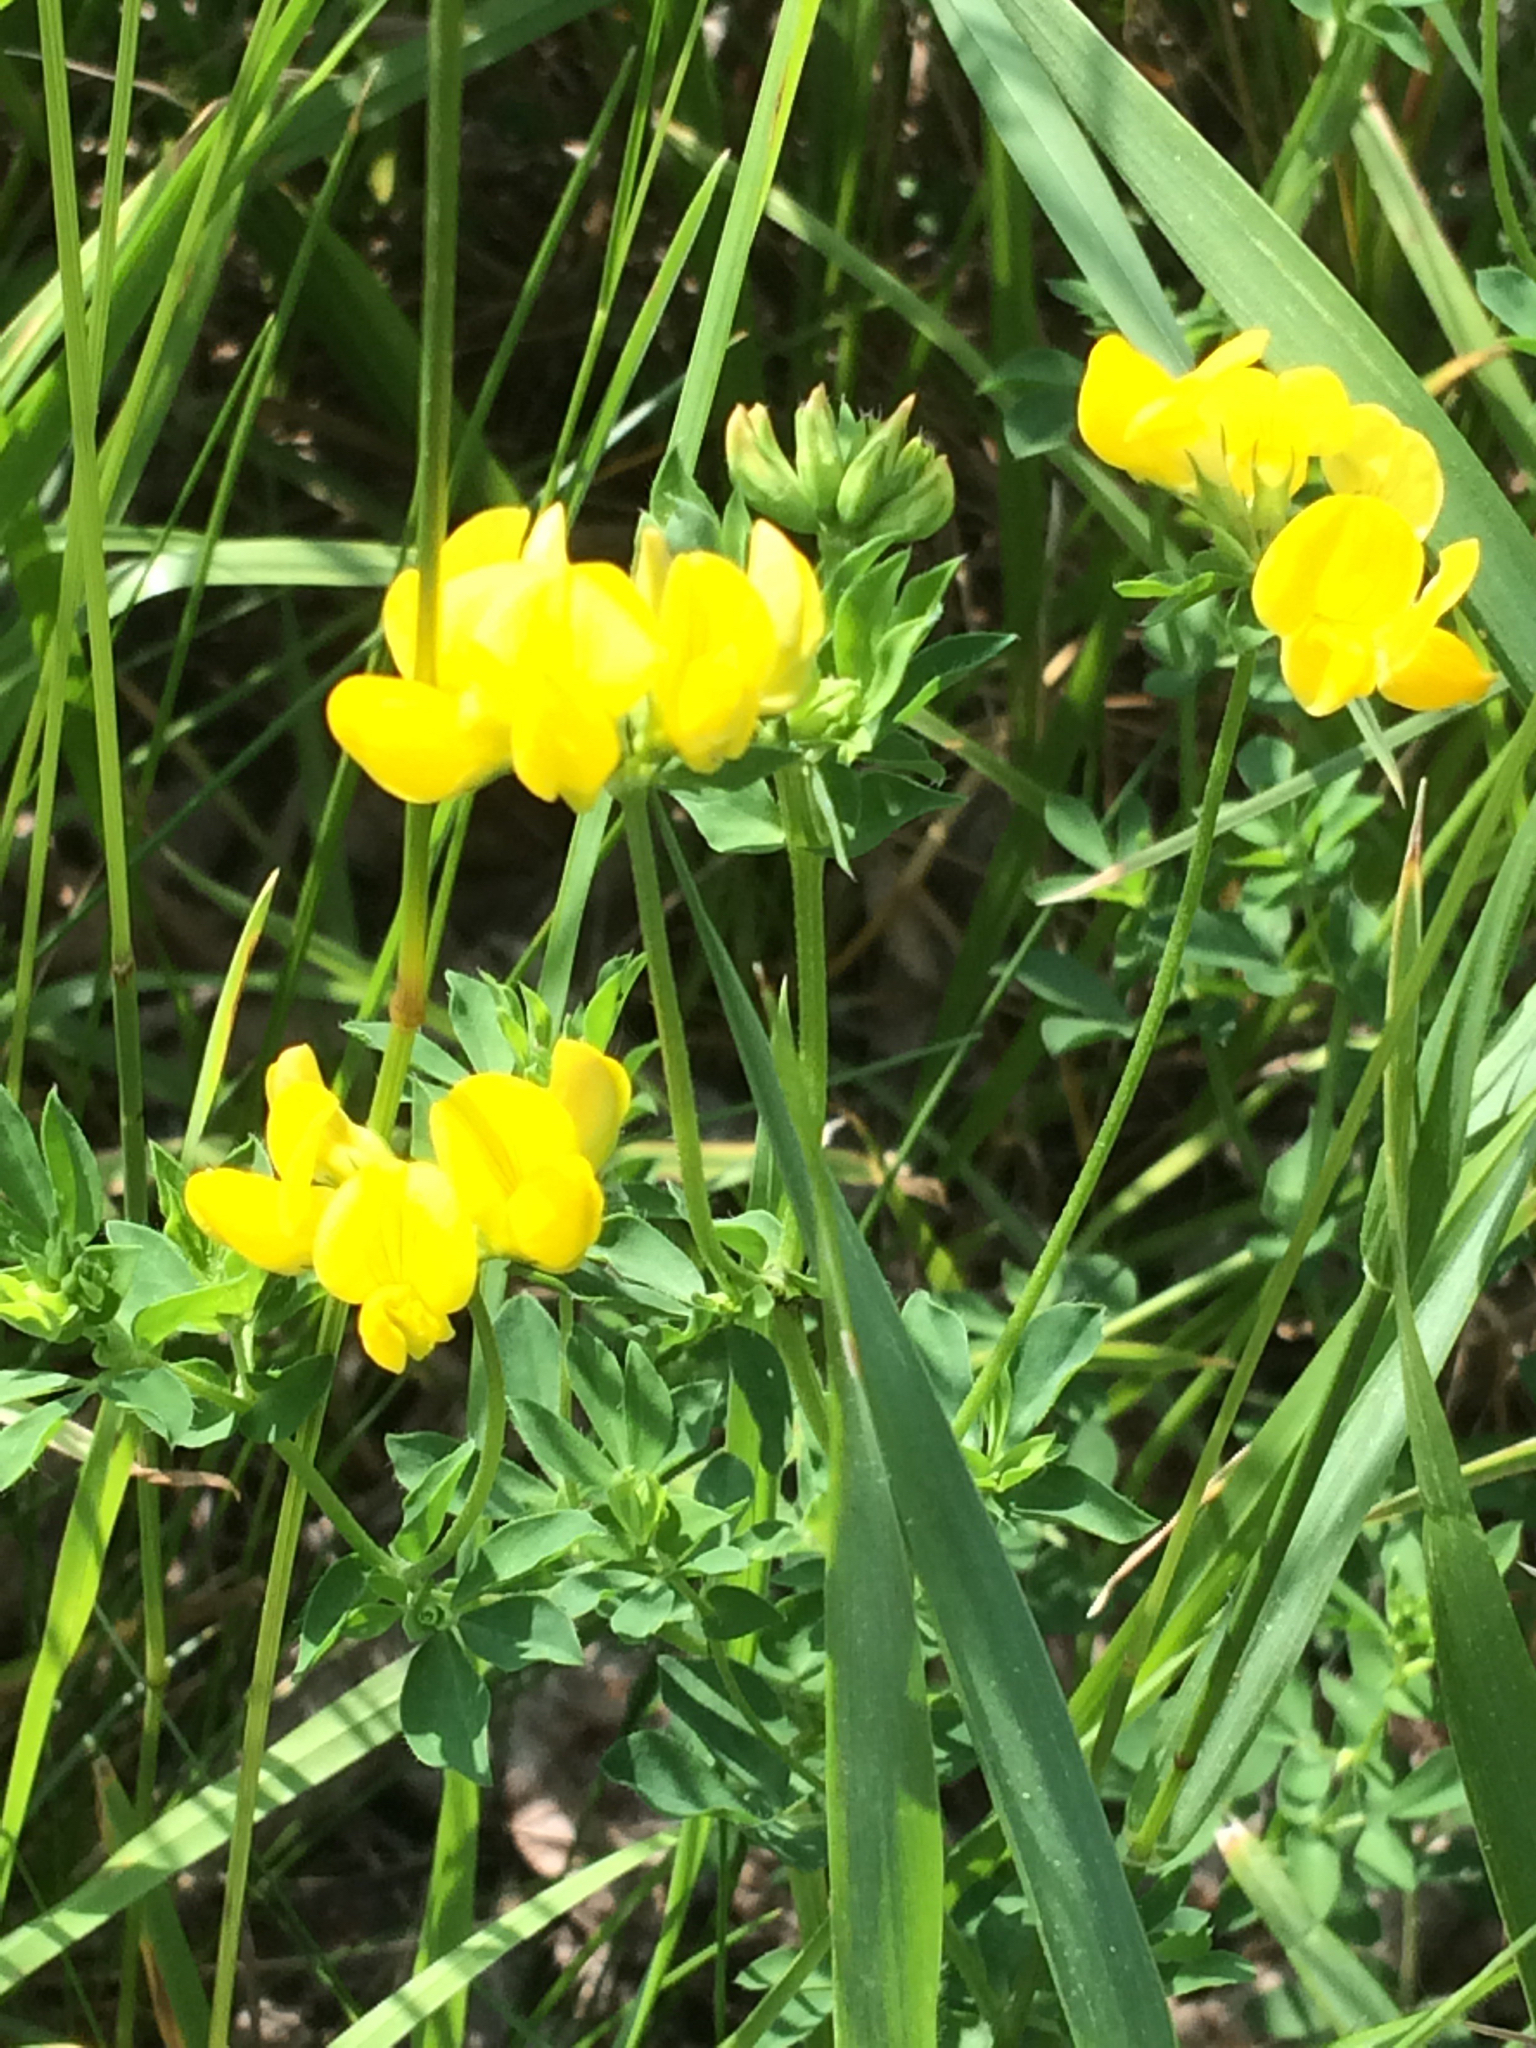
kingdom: Plantae
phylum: Tracheophyta
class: Magnoliopsida
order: Fabales
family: Fabaceae
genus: Lotus
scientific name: Lotus corniculatus
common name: Common bird's-foot-trefoil
